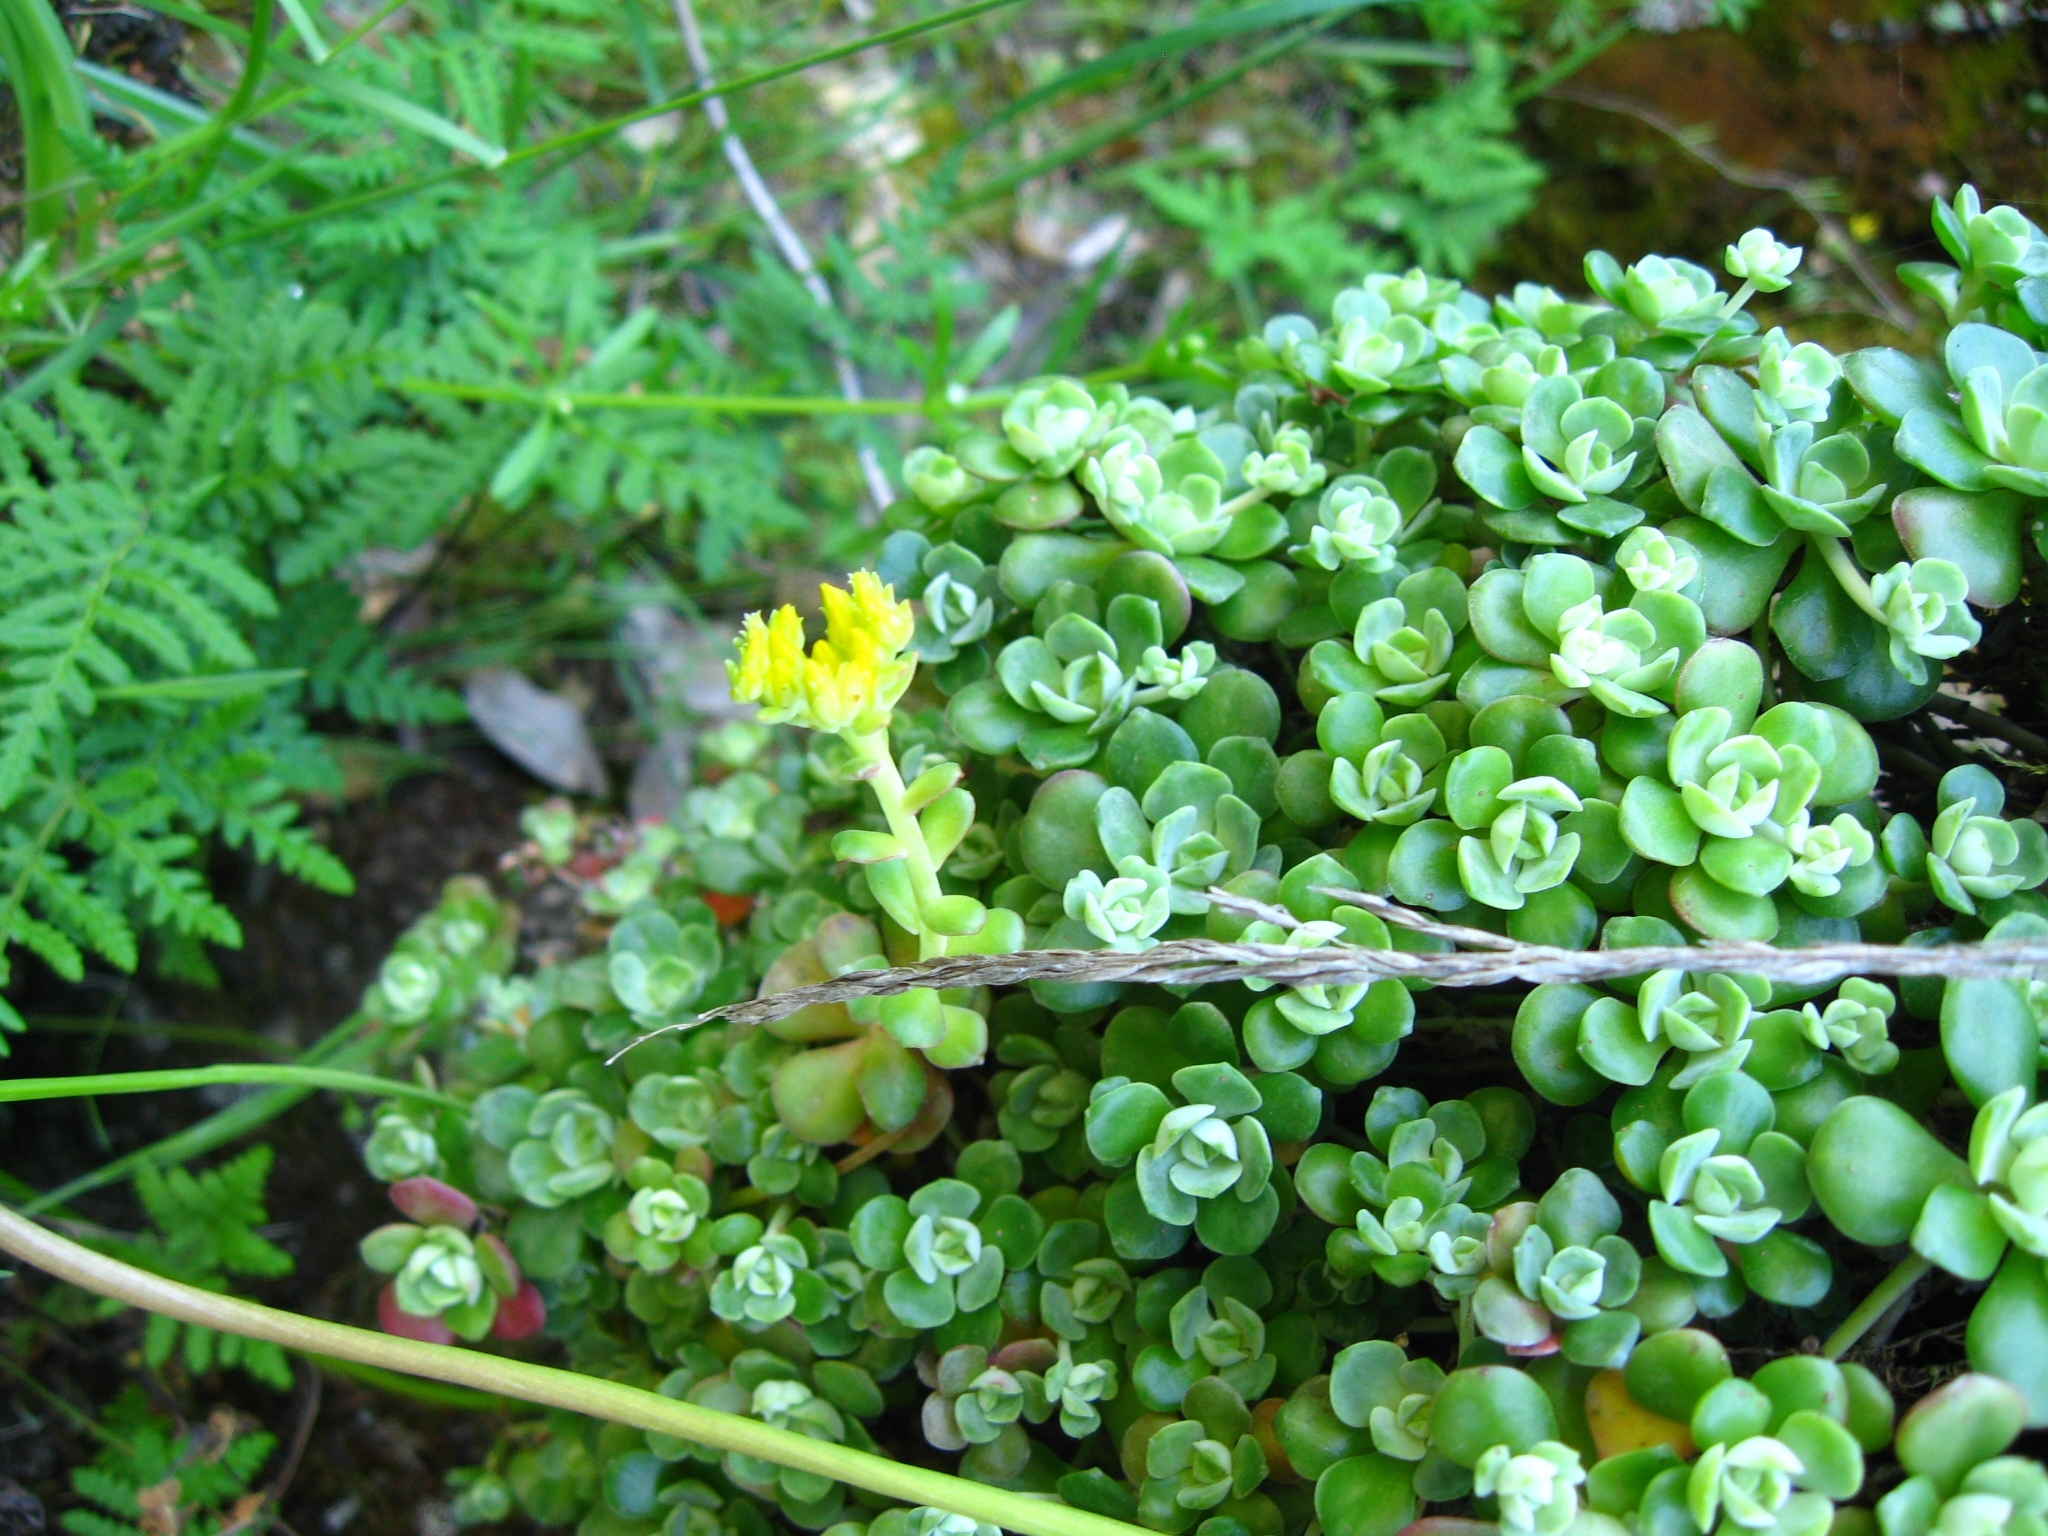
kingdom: Plantae
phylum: Tracheophyta
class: Magnoliopsida
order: Saxifragales
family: Crassulaceae
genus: Sedum
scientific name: Sedum spathulifolium
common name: Colorado stonecrop
